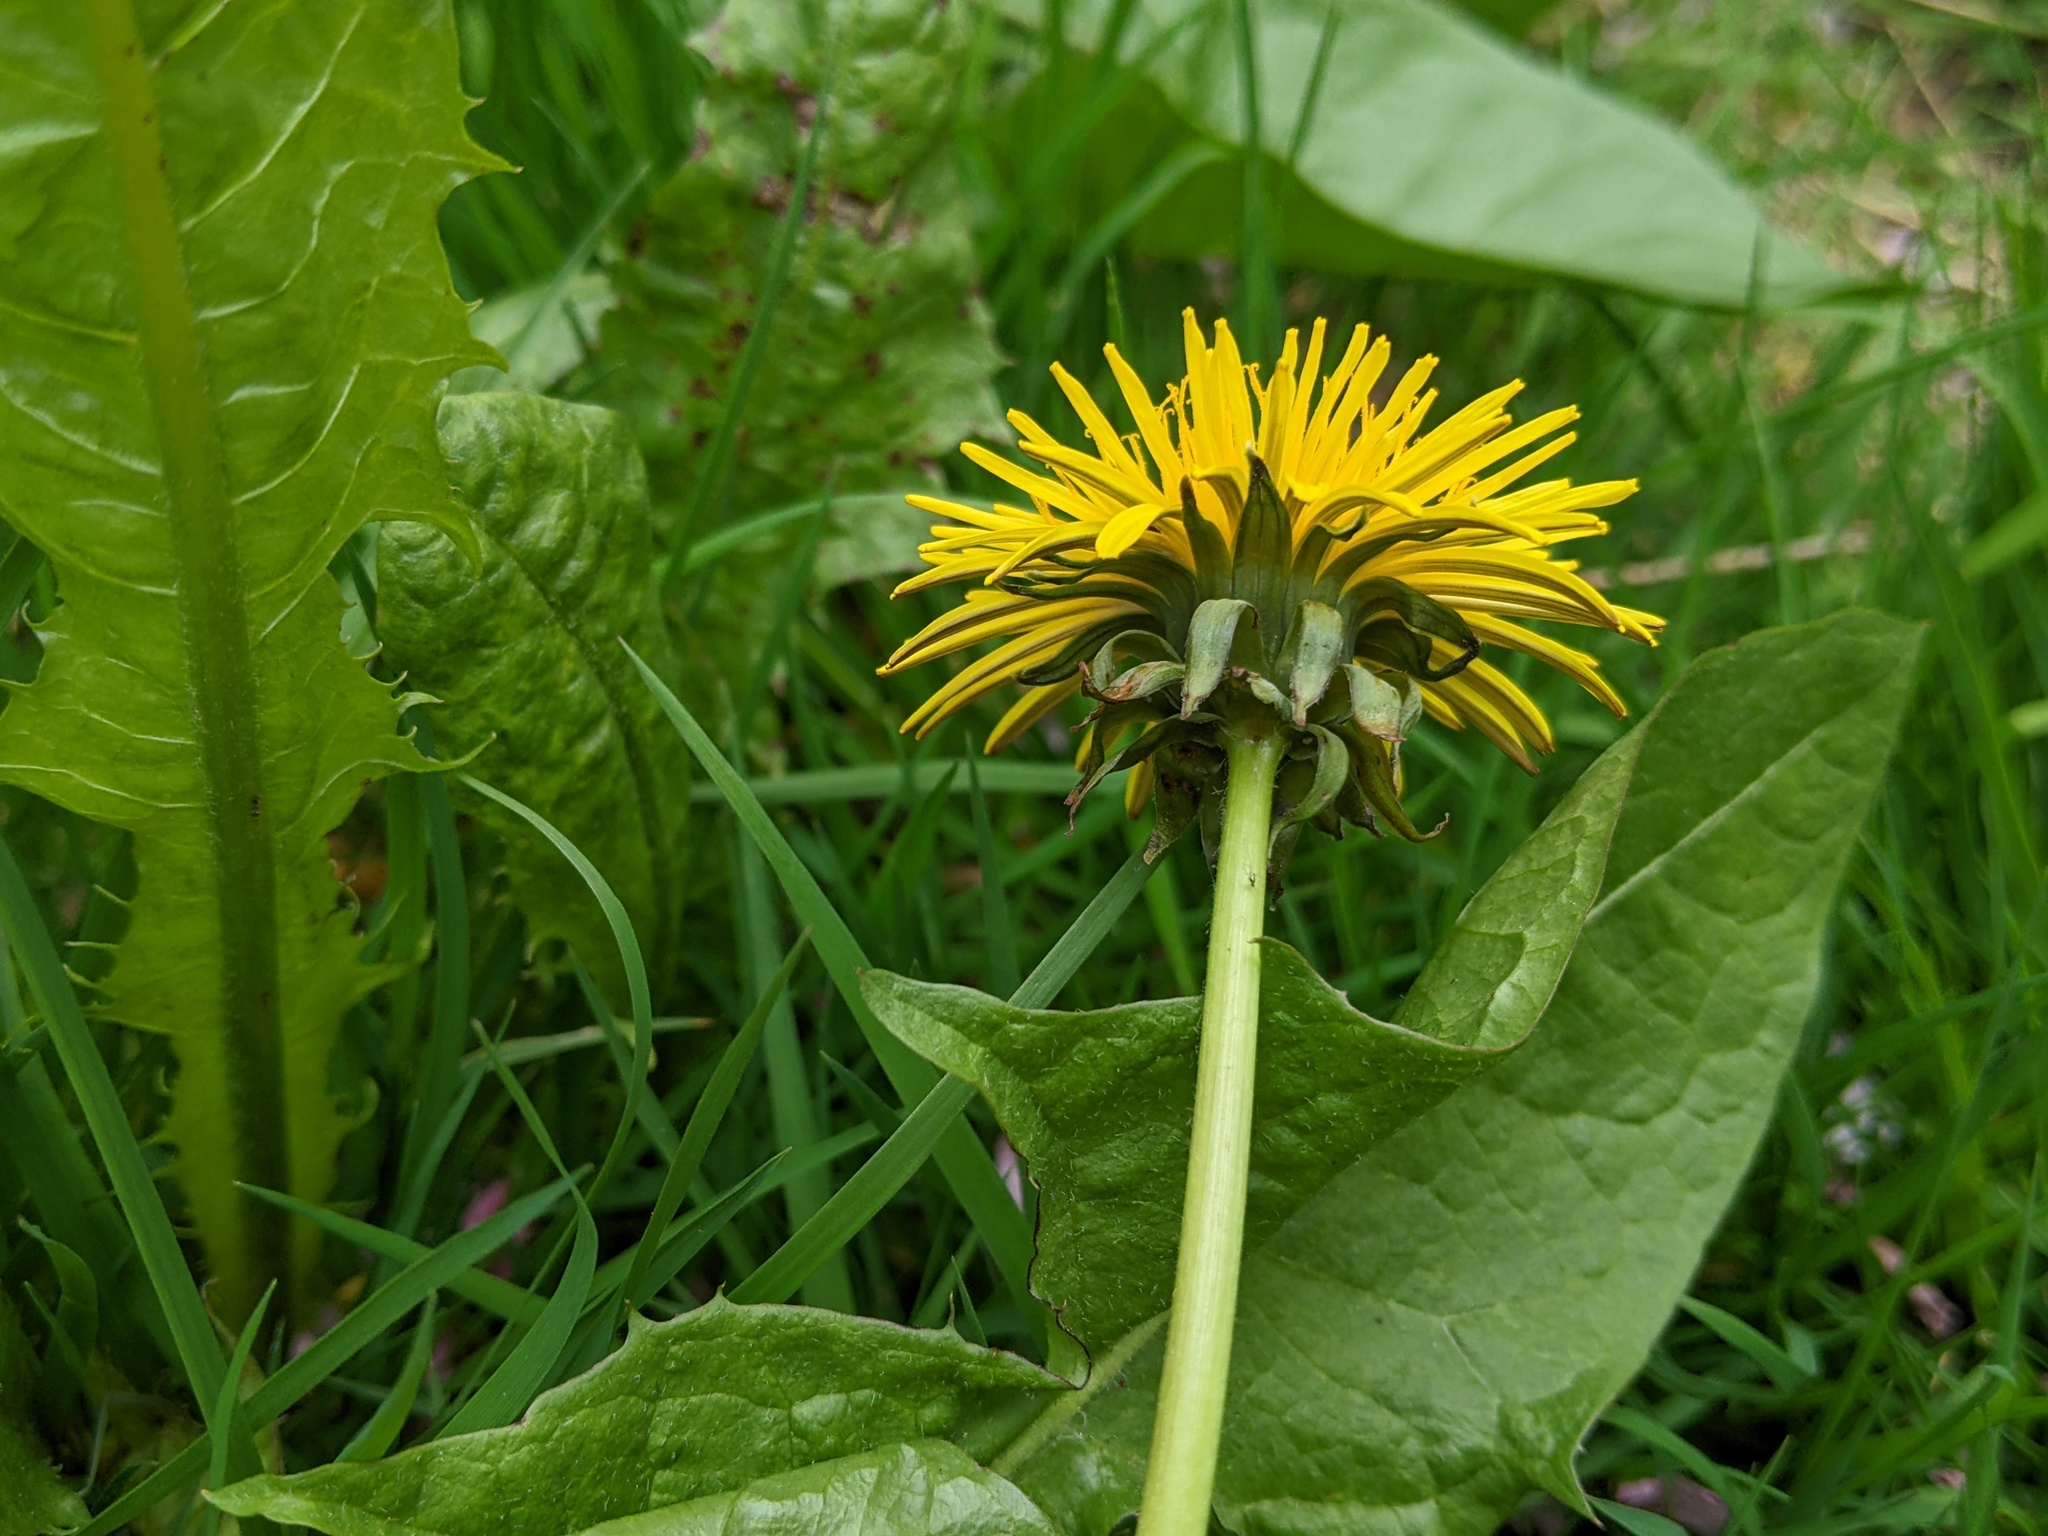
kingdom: Plantae
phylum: Tracheophyta
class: Magnoliopsida
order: Asterales
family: Asteraceae
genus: Taraxacum
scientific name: Taraxacum
